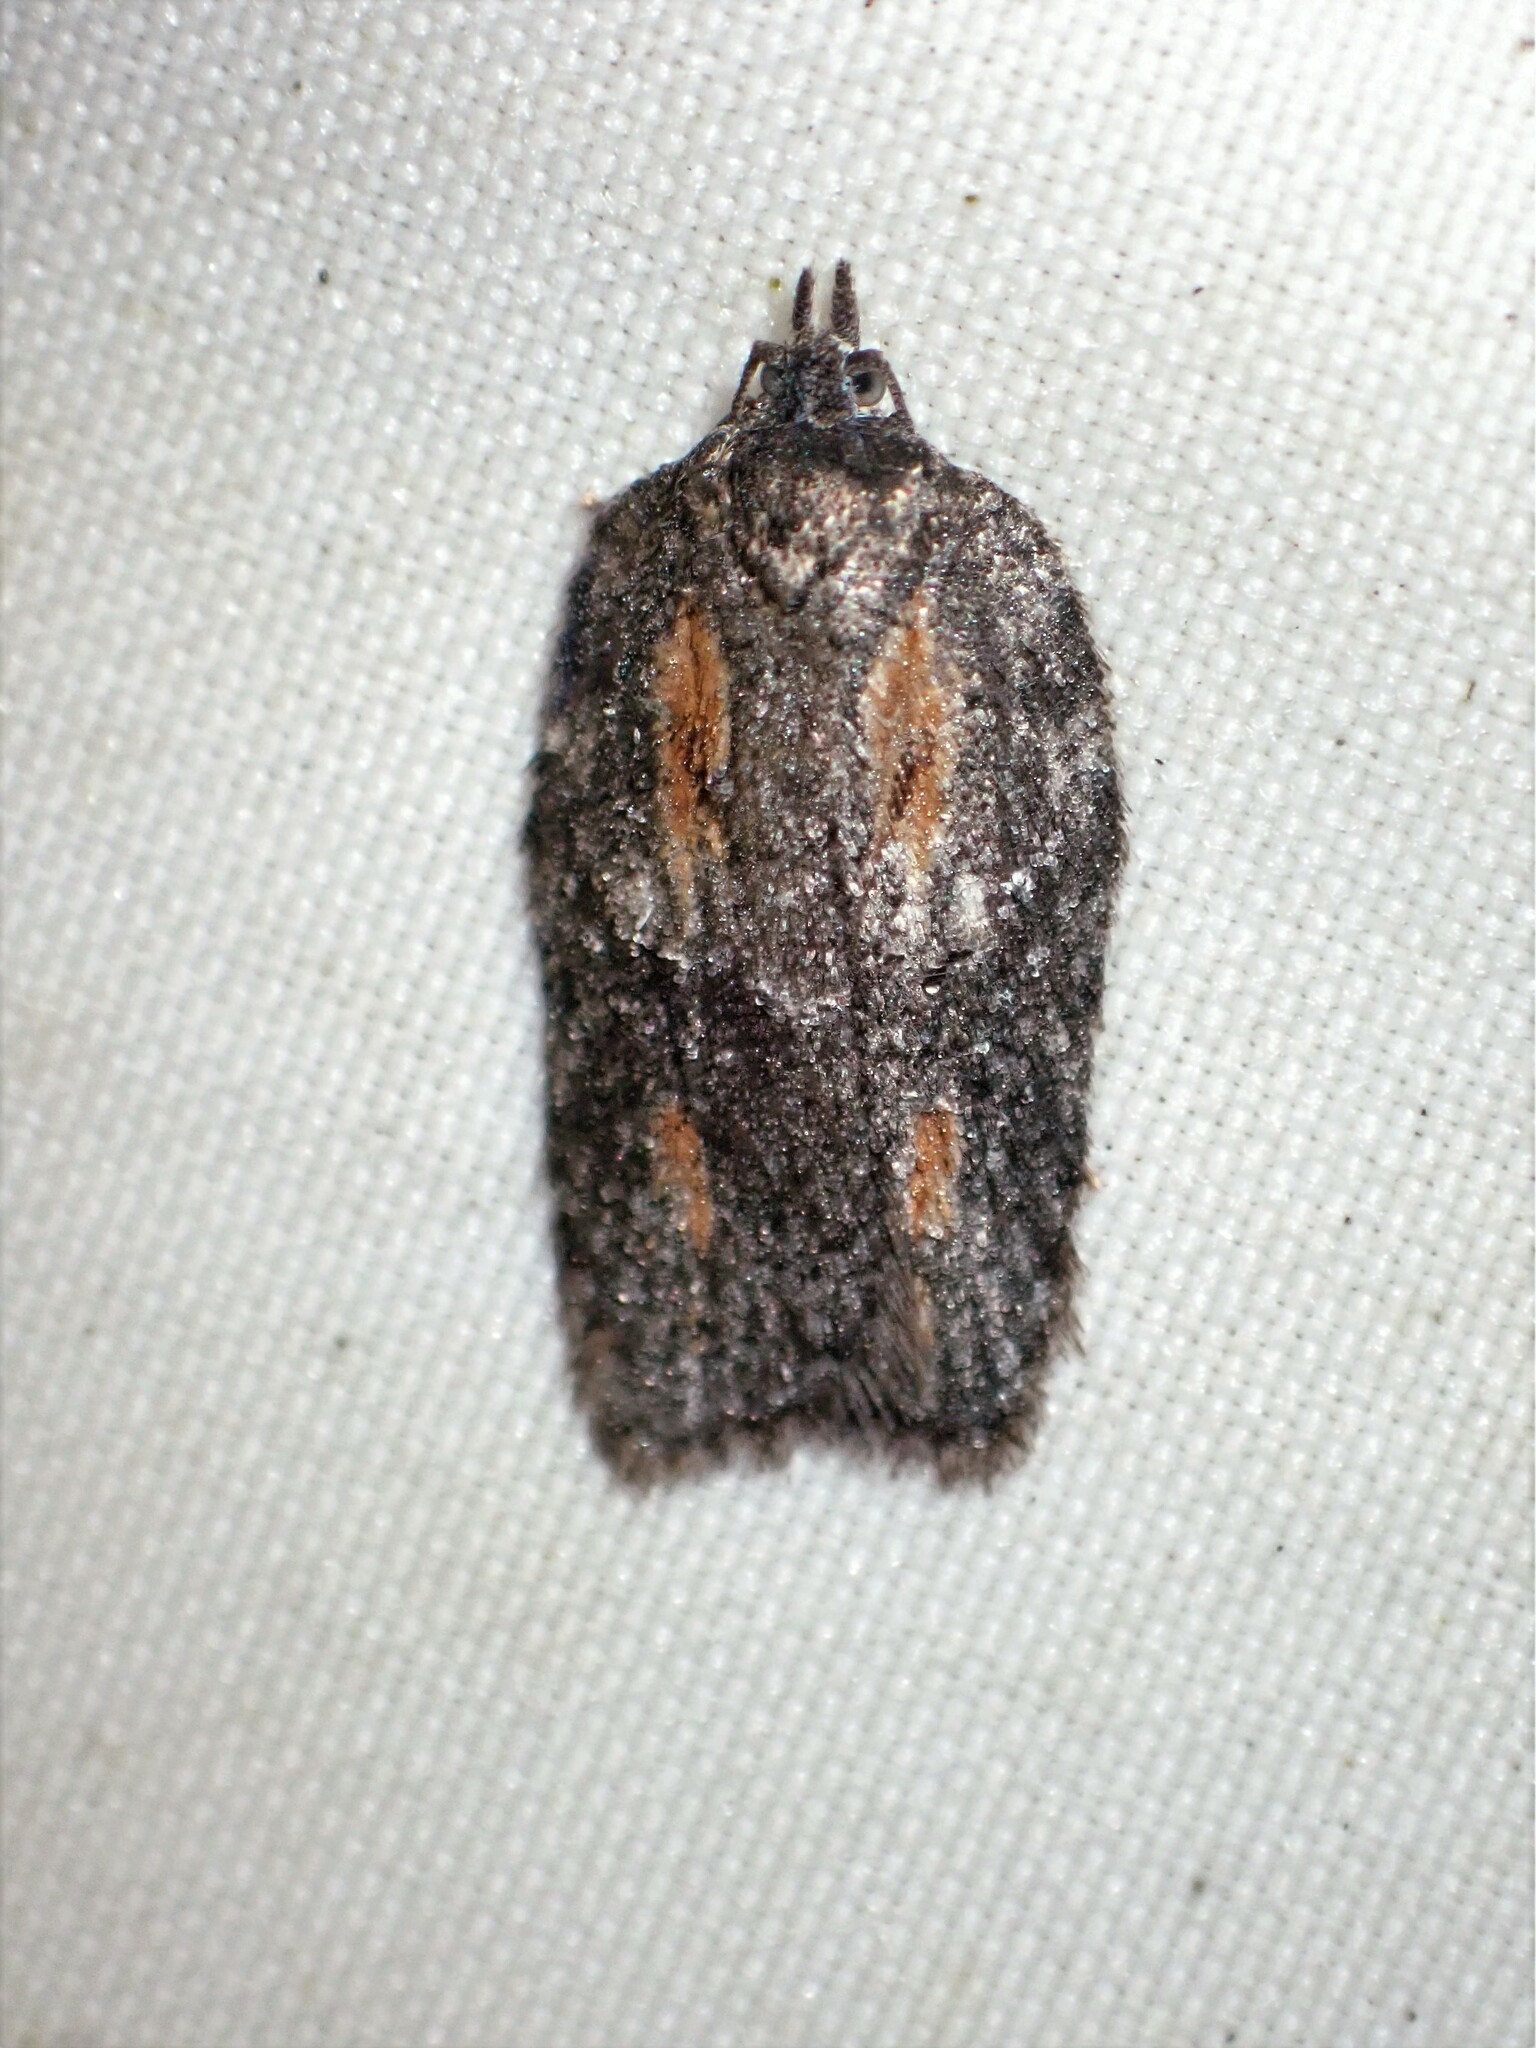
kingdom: Animalia
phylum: Arthropoda
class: Insecta
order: Lepidoptera
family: Tortricidae
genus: Acleris
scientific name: Acleris nigrolinea
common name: Black-lined acleris
